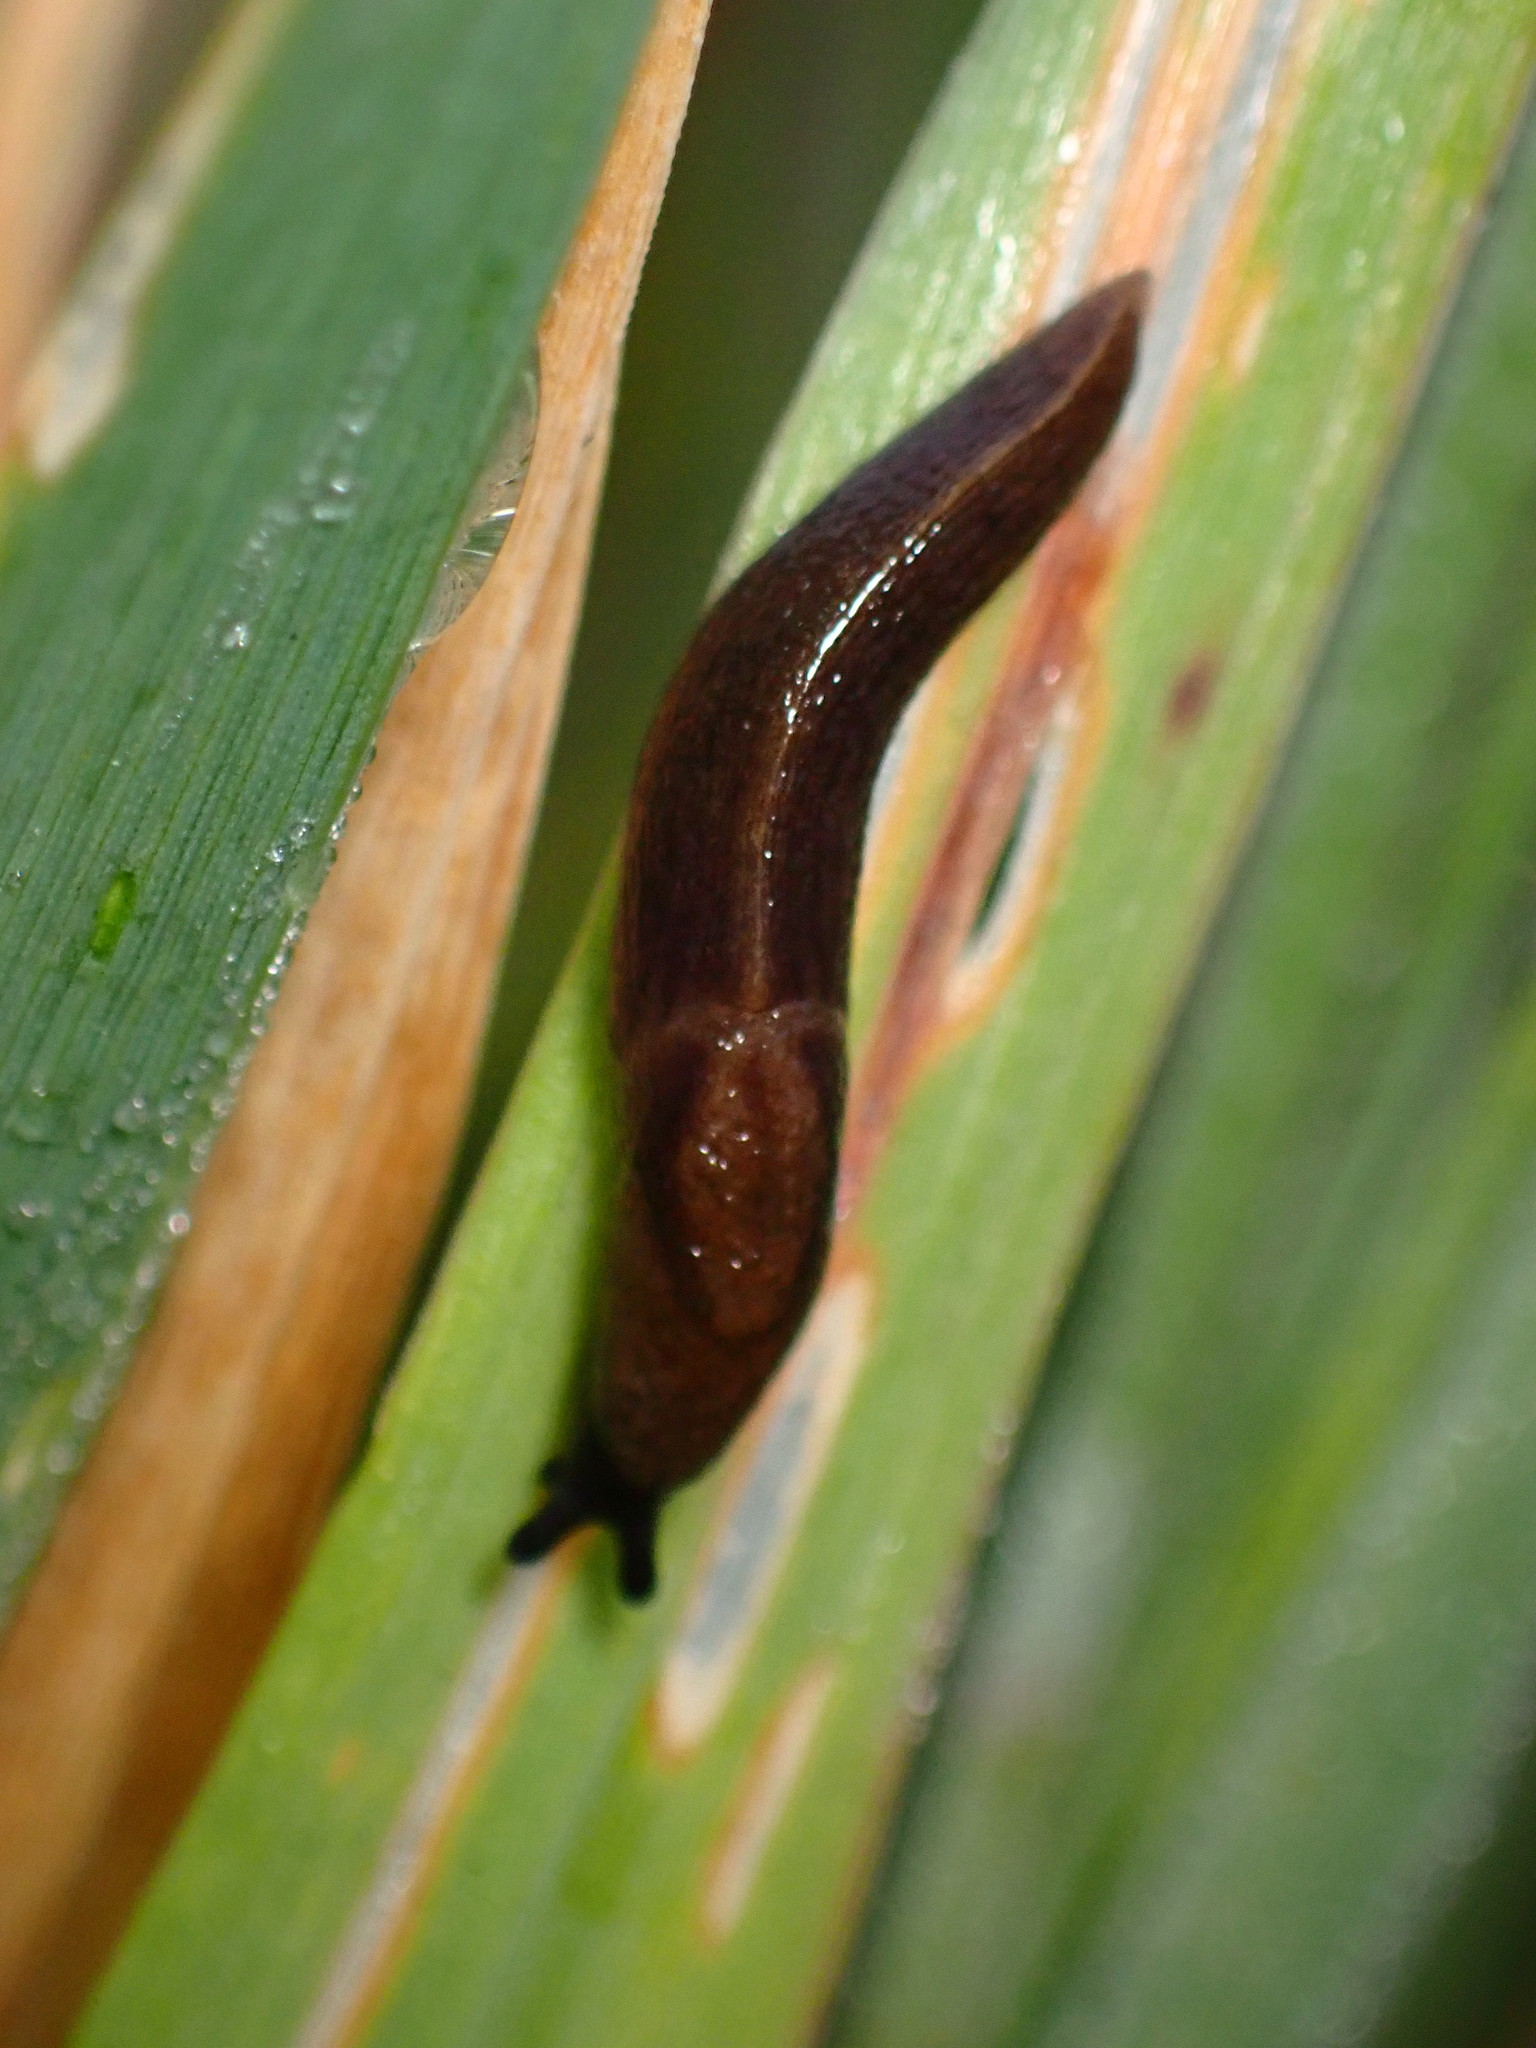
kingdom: Animalia
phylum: Mollusca
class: Gastropoda
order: Stylommatophora
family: Milacidae
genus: Milax
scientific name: Milax gagates
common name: Greenhouse slug
